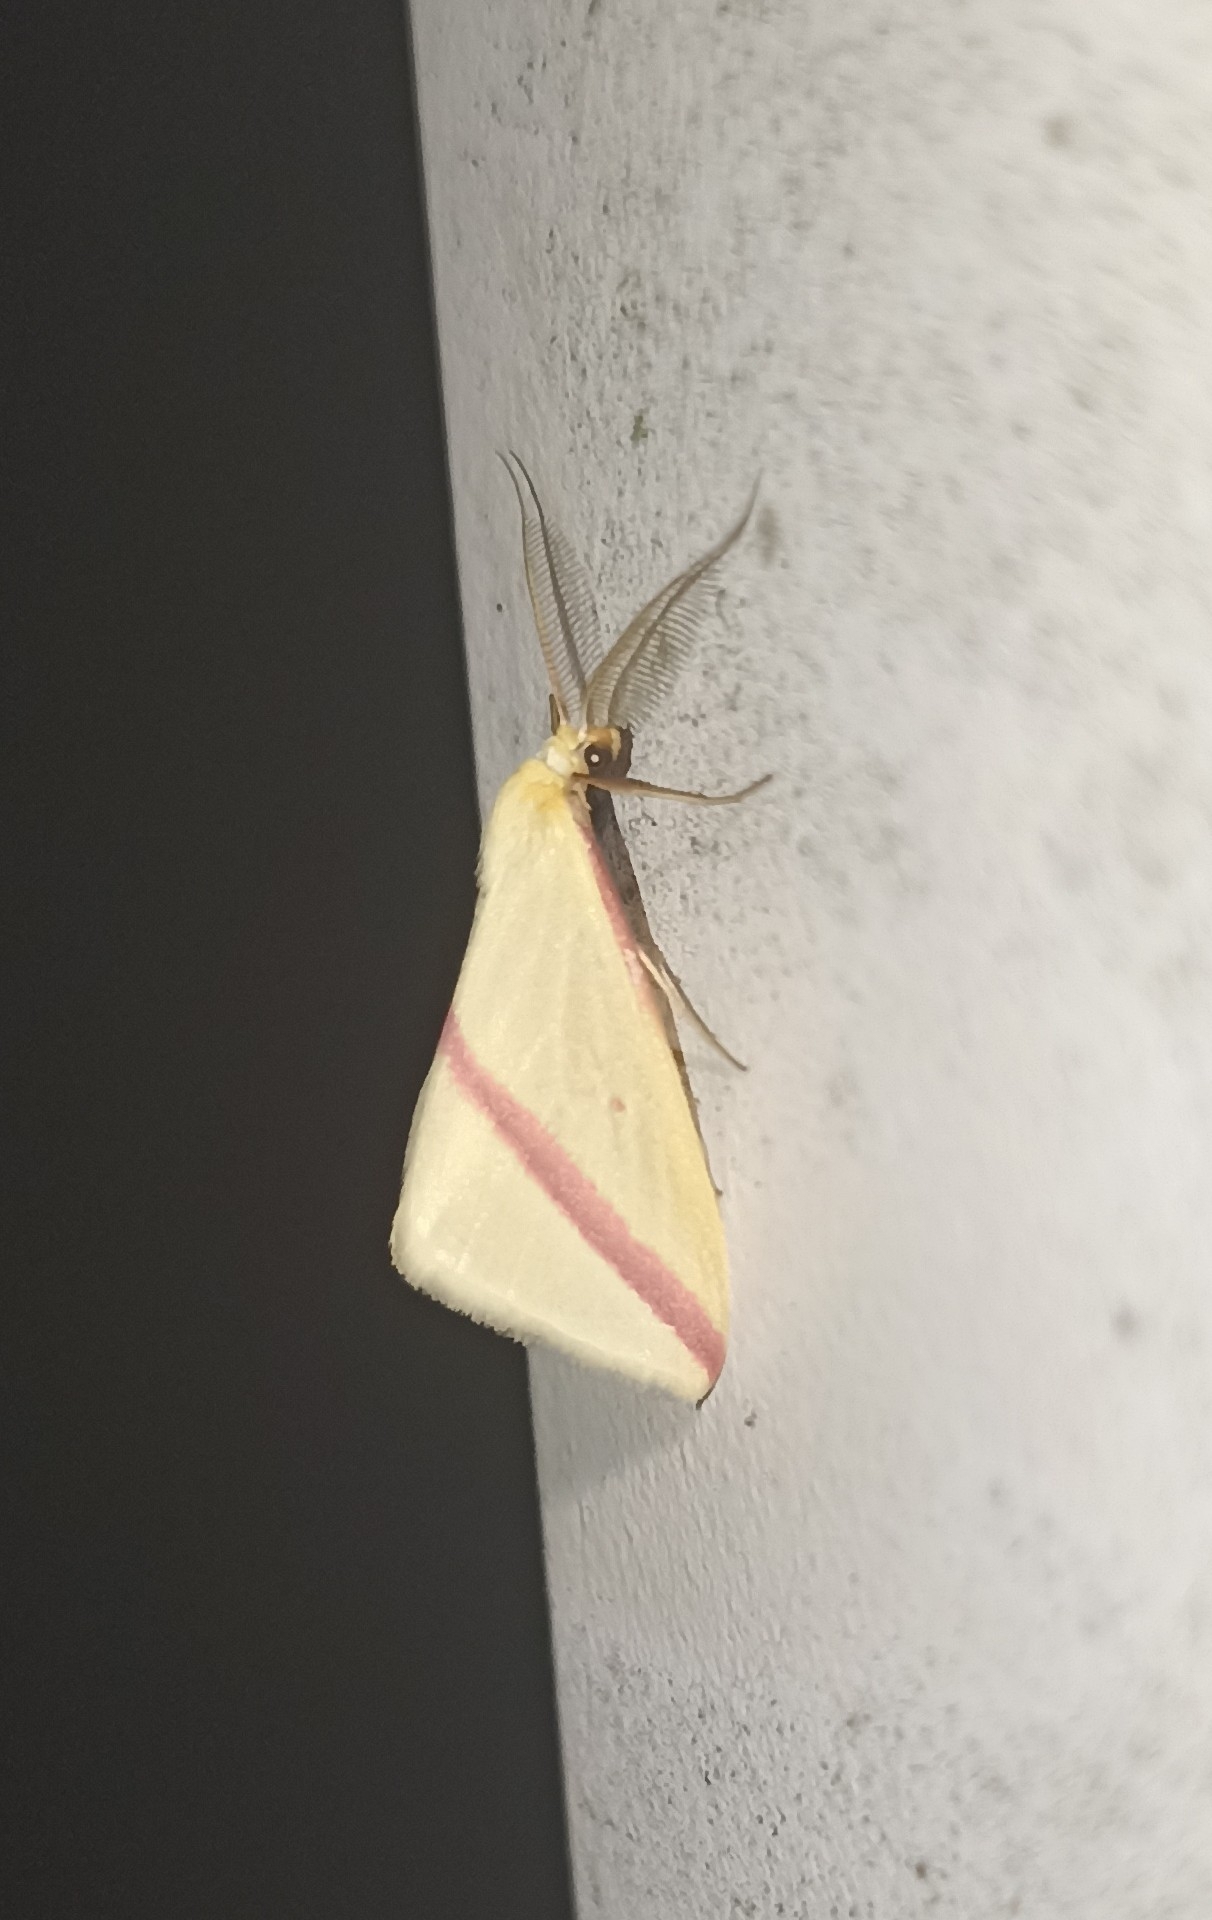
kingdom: Animalia
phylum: Arthropoda
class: Insecta
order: Lepidoptera
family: Geometridae
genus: Rhodometra
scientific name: Rhodometra sacraria
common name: Vestal
